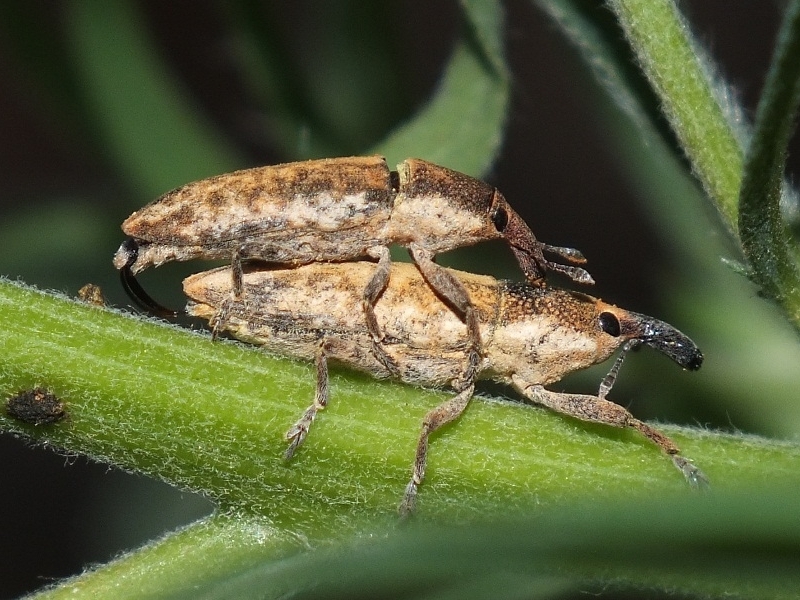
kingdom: Animalia
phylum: Arthropoda
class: Insecta
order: Coleoptera
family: Curculionidae
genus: Lixus
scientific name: Lixus subtilis
